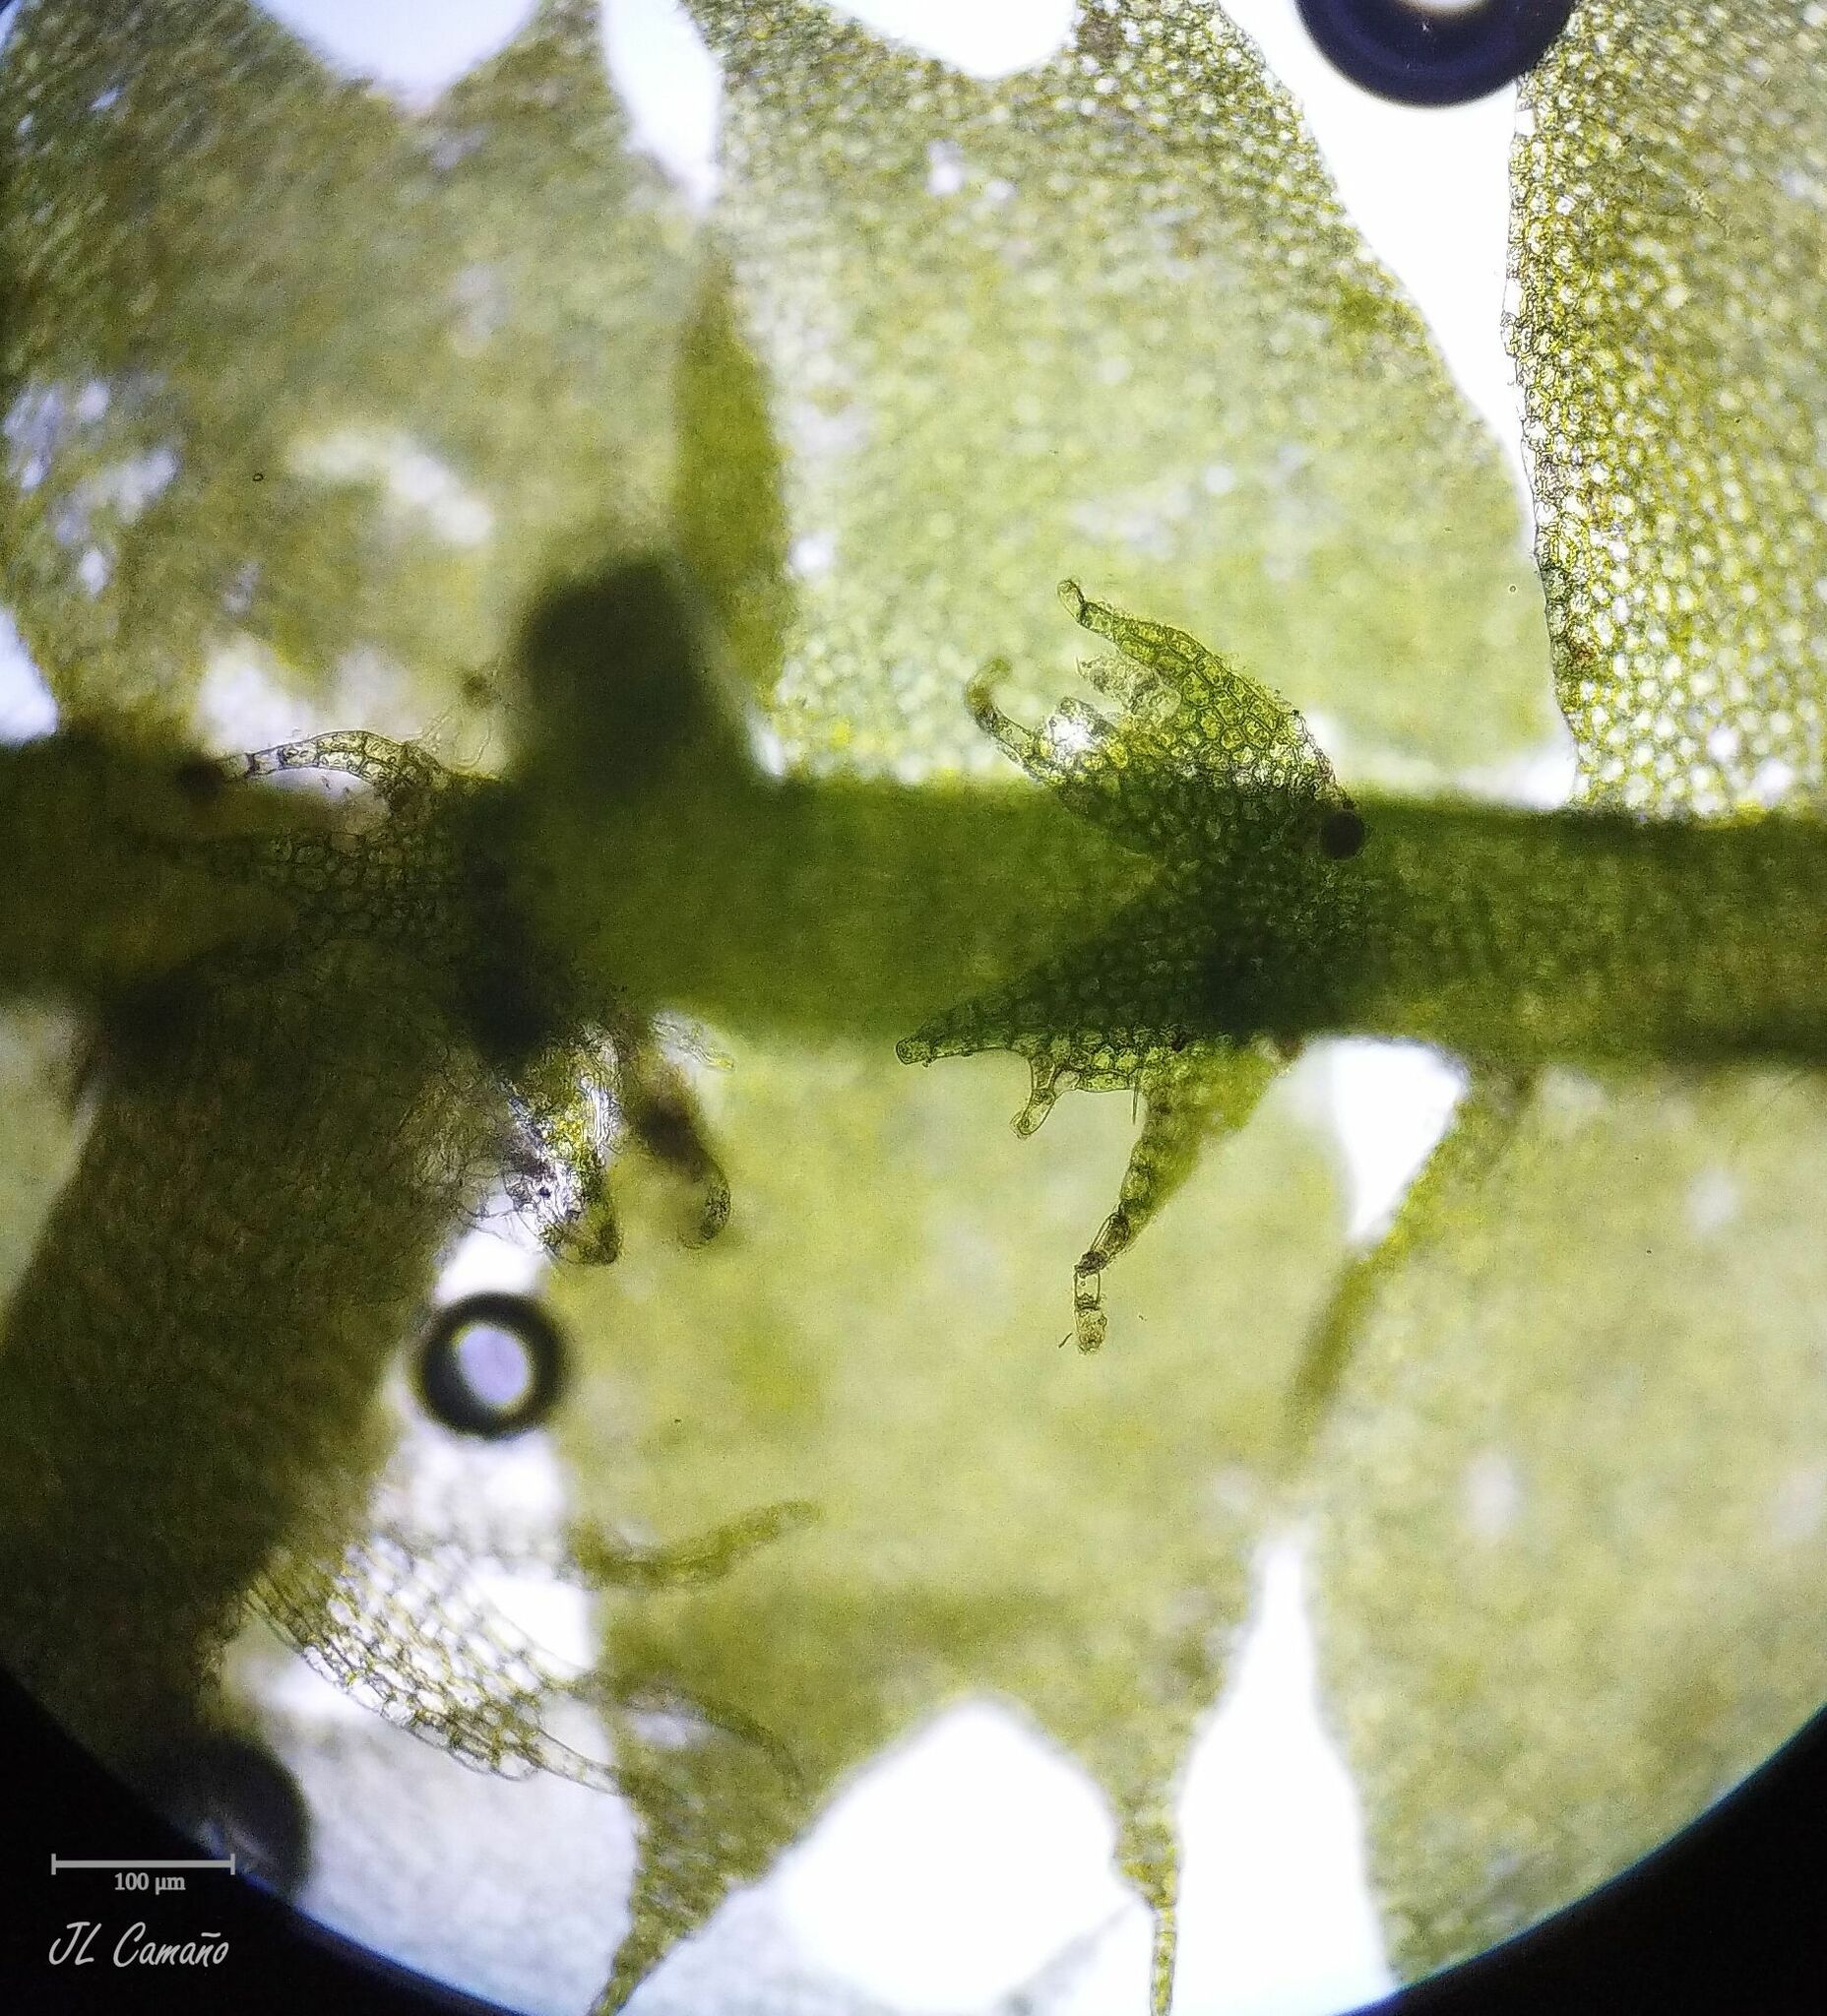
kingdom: Plantae
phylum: Marchantiophyta
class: Jungermanniopsida
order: Jungermanniales
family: Lophocoleaceae
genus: Lophocolea
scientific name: Lophocolea bidentata
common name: Bifid crestwort
